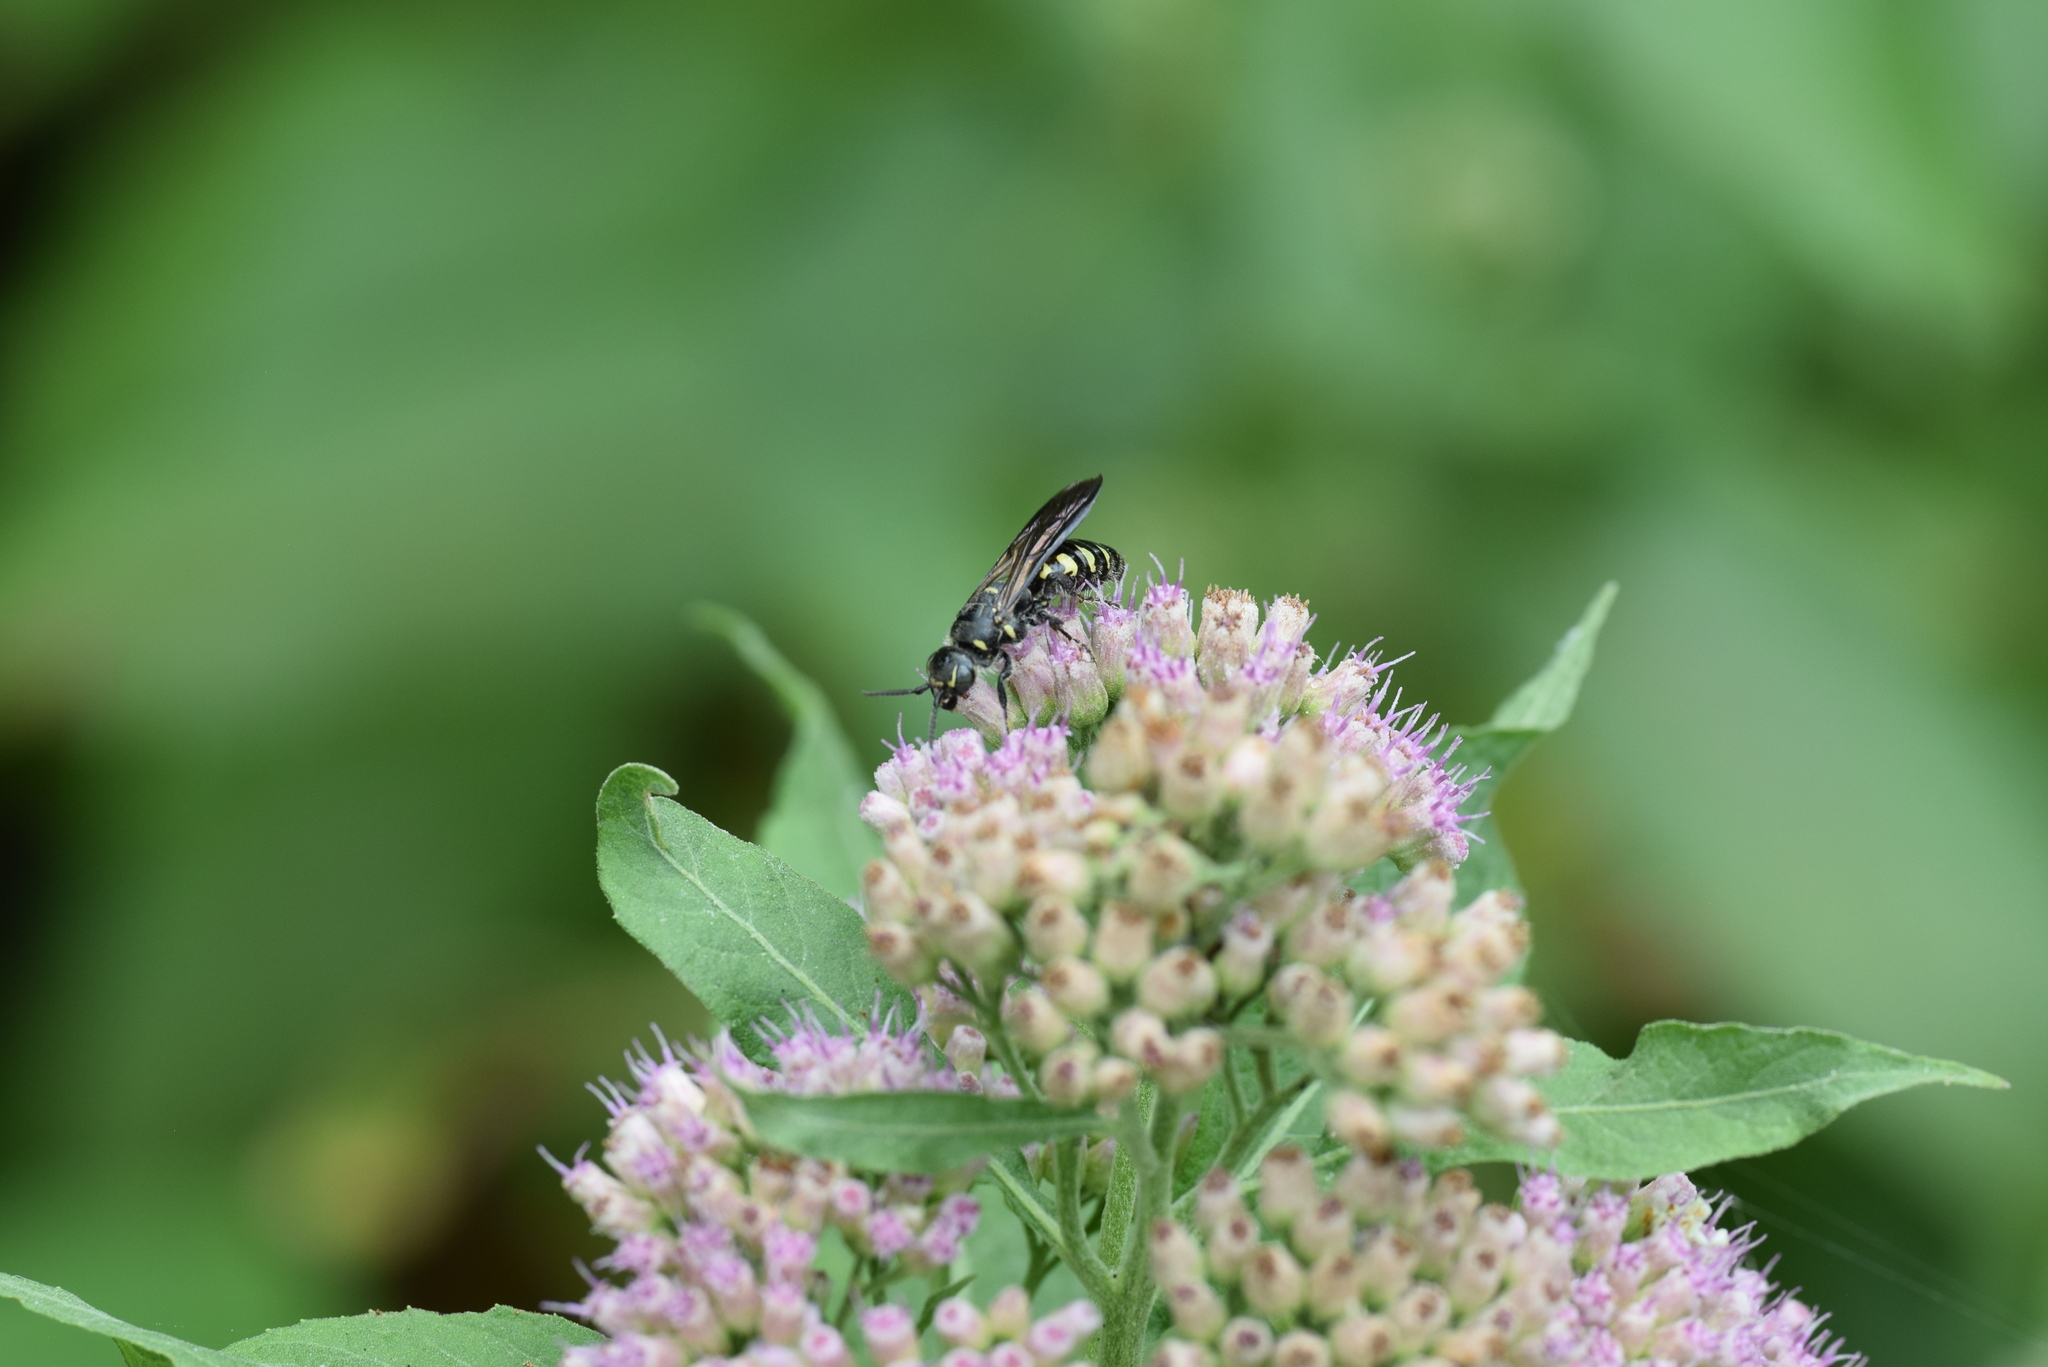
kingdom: Animalia
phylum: Arthropoda
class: Insecta
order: Hymenoptera
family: Tiphiidae
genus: Myzinum
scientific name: Myzinum obscurum
